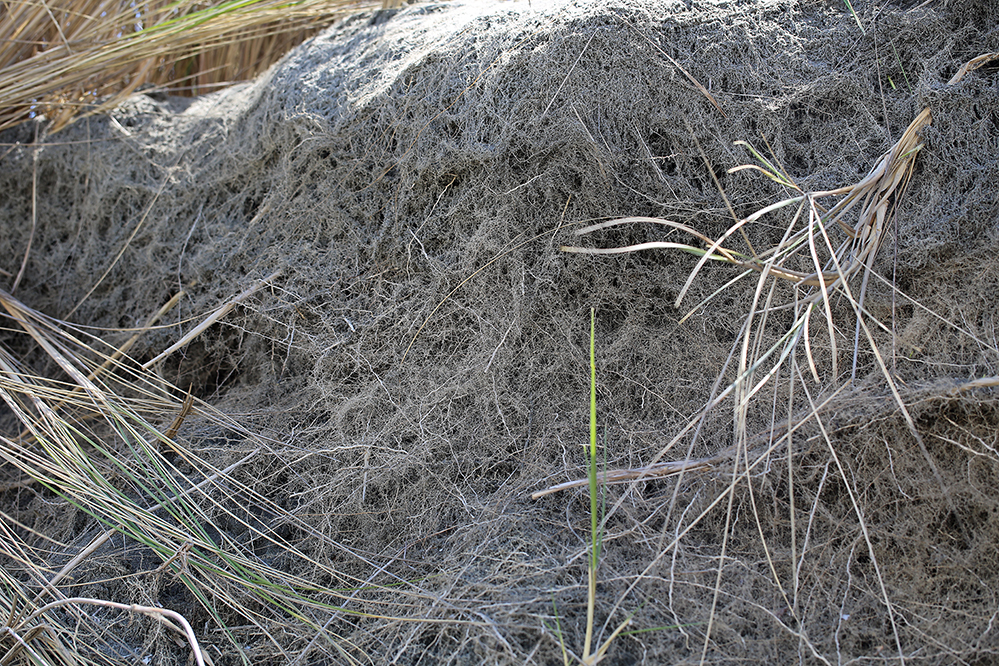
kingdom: Plantae
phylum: Tracheophyta
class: Liliopsida
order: Poales
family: Poaceae
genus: Calamagrostis
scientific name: Calamagrostis arenaria
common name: European beachgrass
